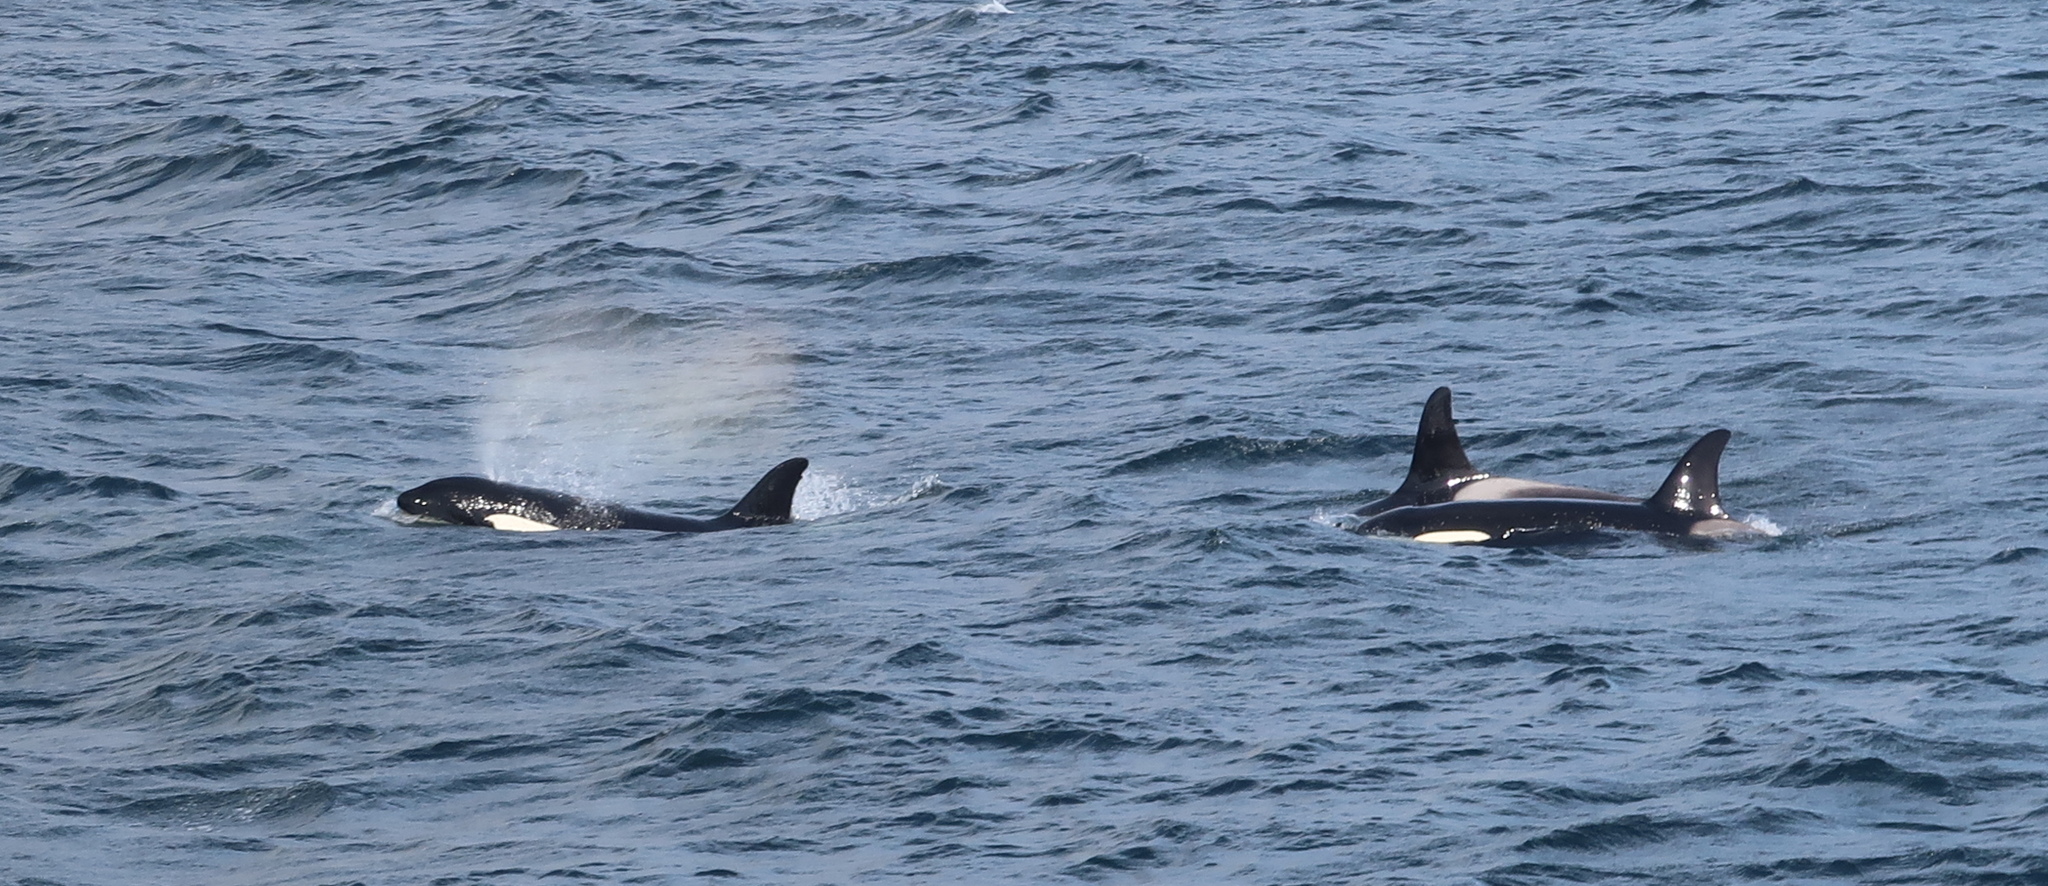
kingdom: Animalia
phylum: Chordata
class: Mammalia
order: Cetacea
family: Delphinidae
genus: Orcinus
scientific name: Orcinus orca
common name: Killer whale
